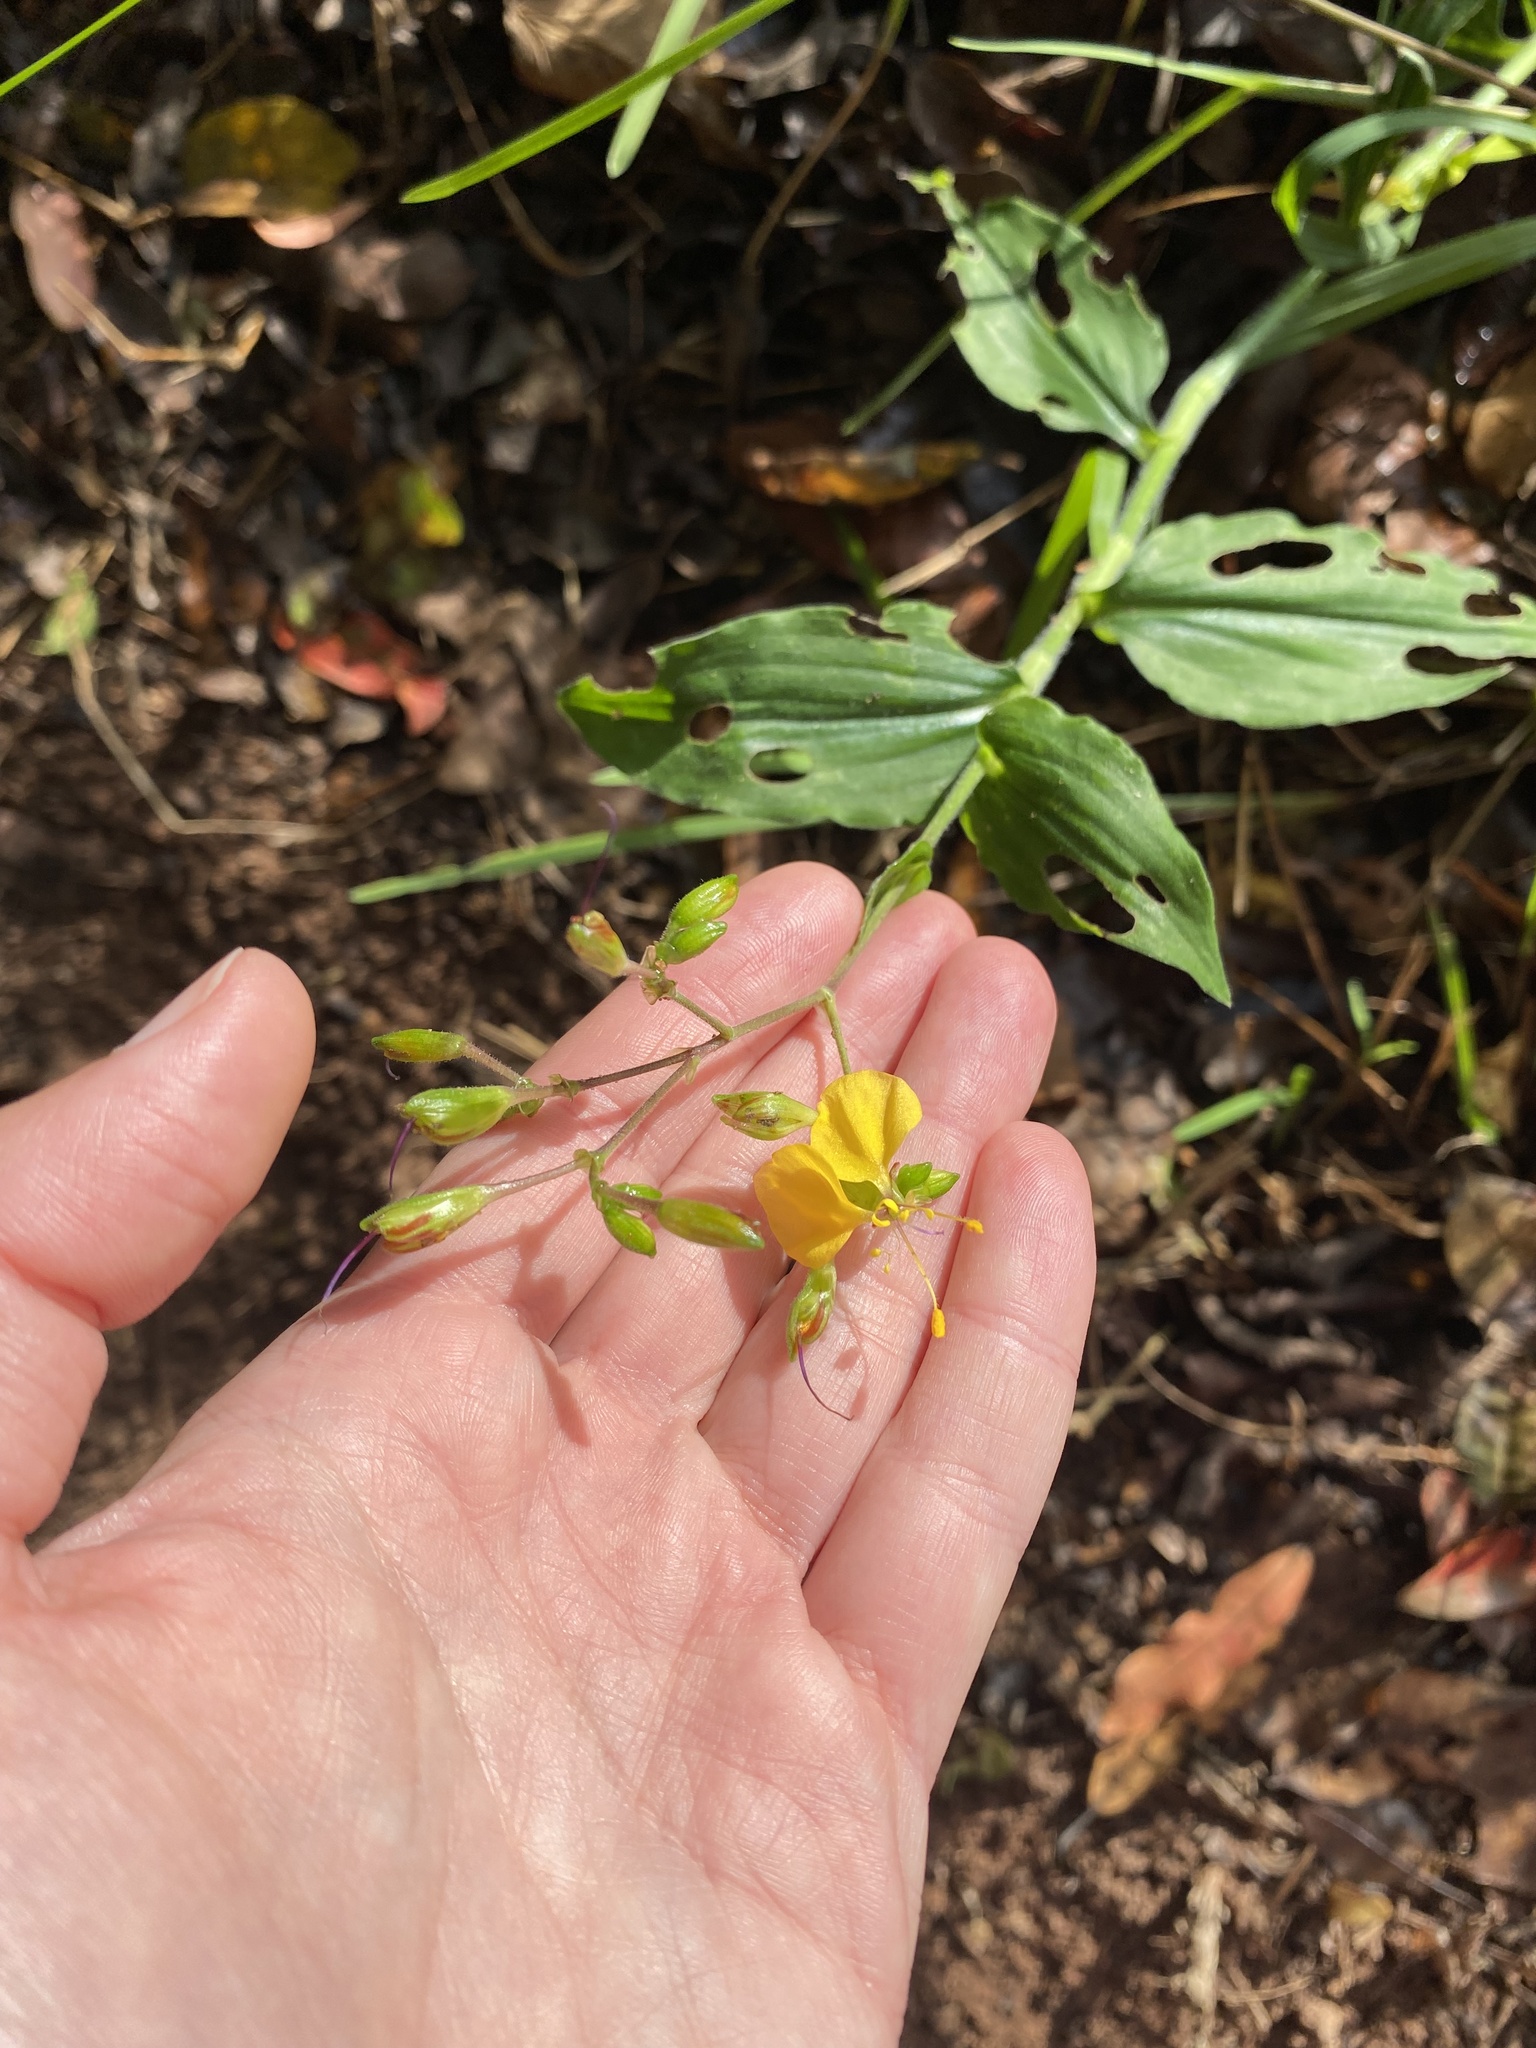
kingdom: Plantae
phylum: Tracheophyta
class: Liliopsida
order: Commelinales
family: Commelinaceae
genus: Aneilema
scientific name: Aneilema aequinoctiale
